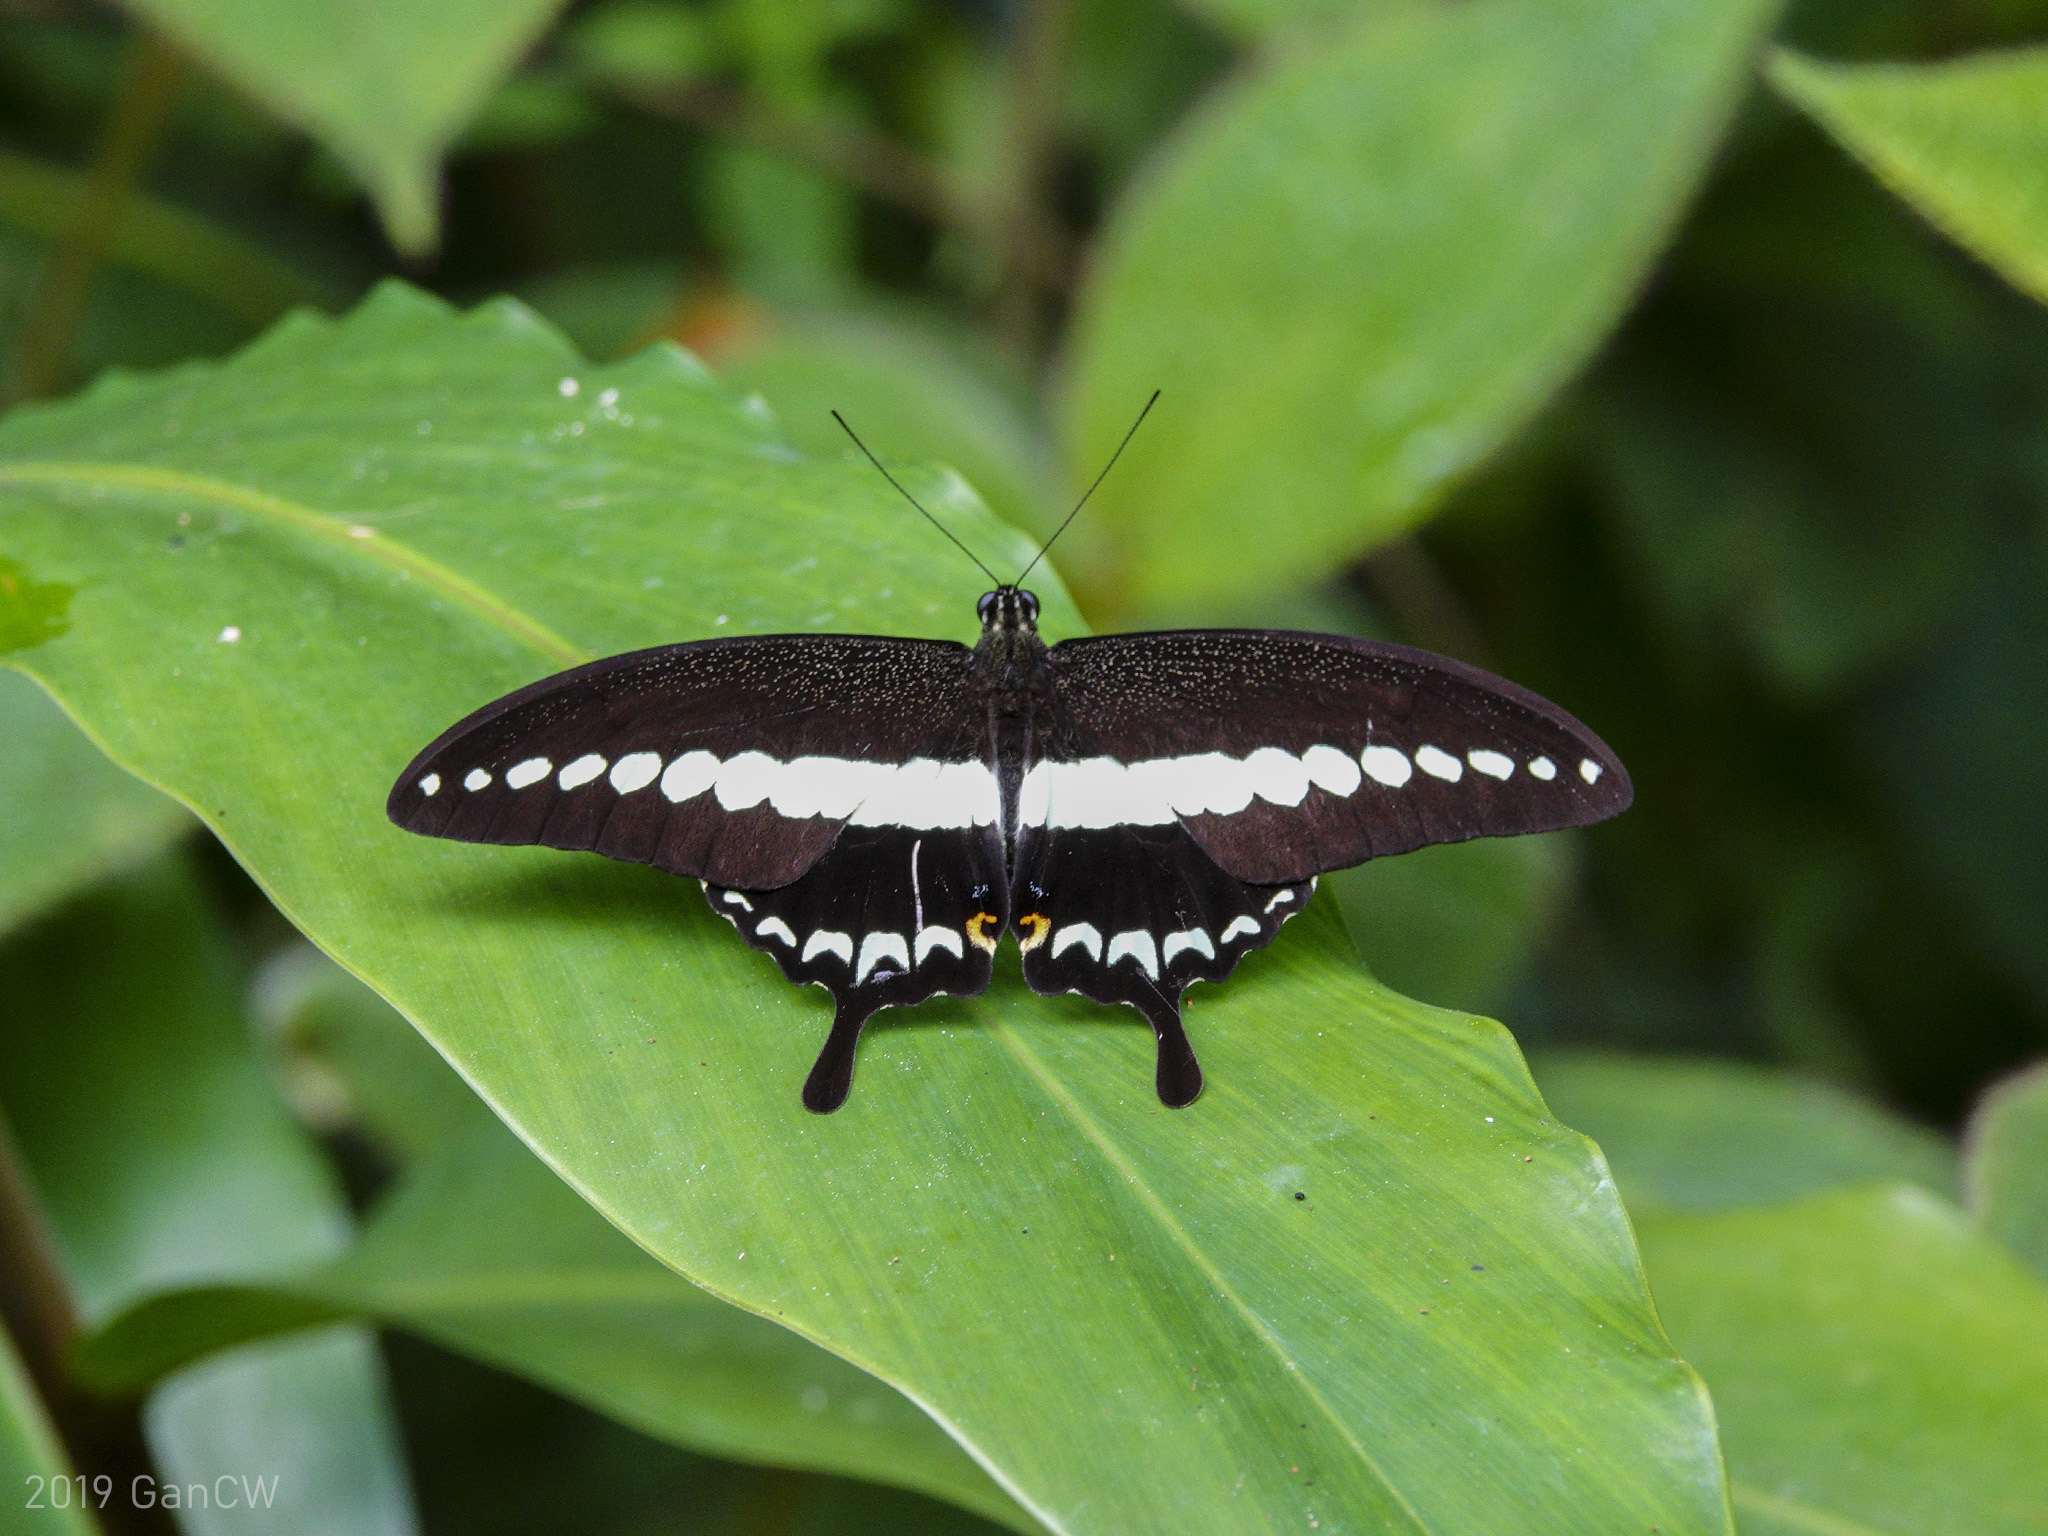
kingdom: Animalia
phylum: Arthropoda
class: Insecta
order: Lepidoptera
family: Papilionidae
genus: Papilio
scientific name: Papilio demolion
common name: Banded swallowtail
